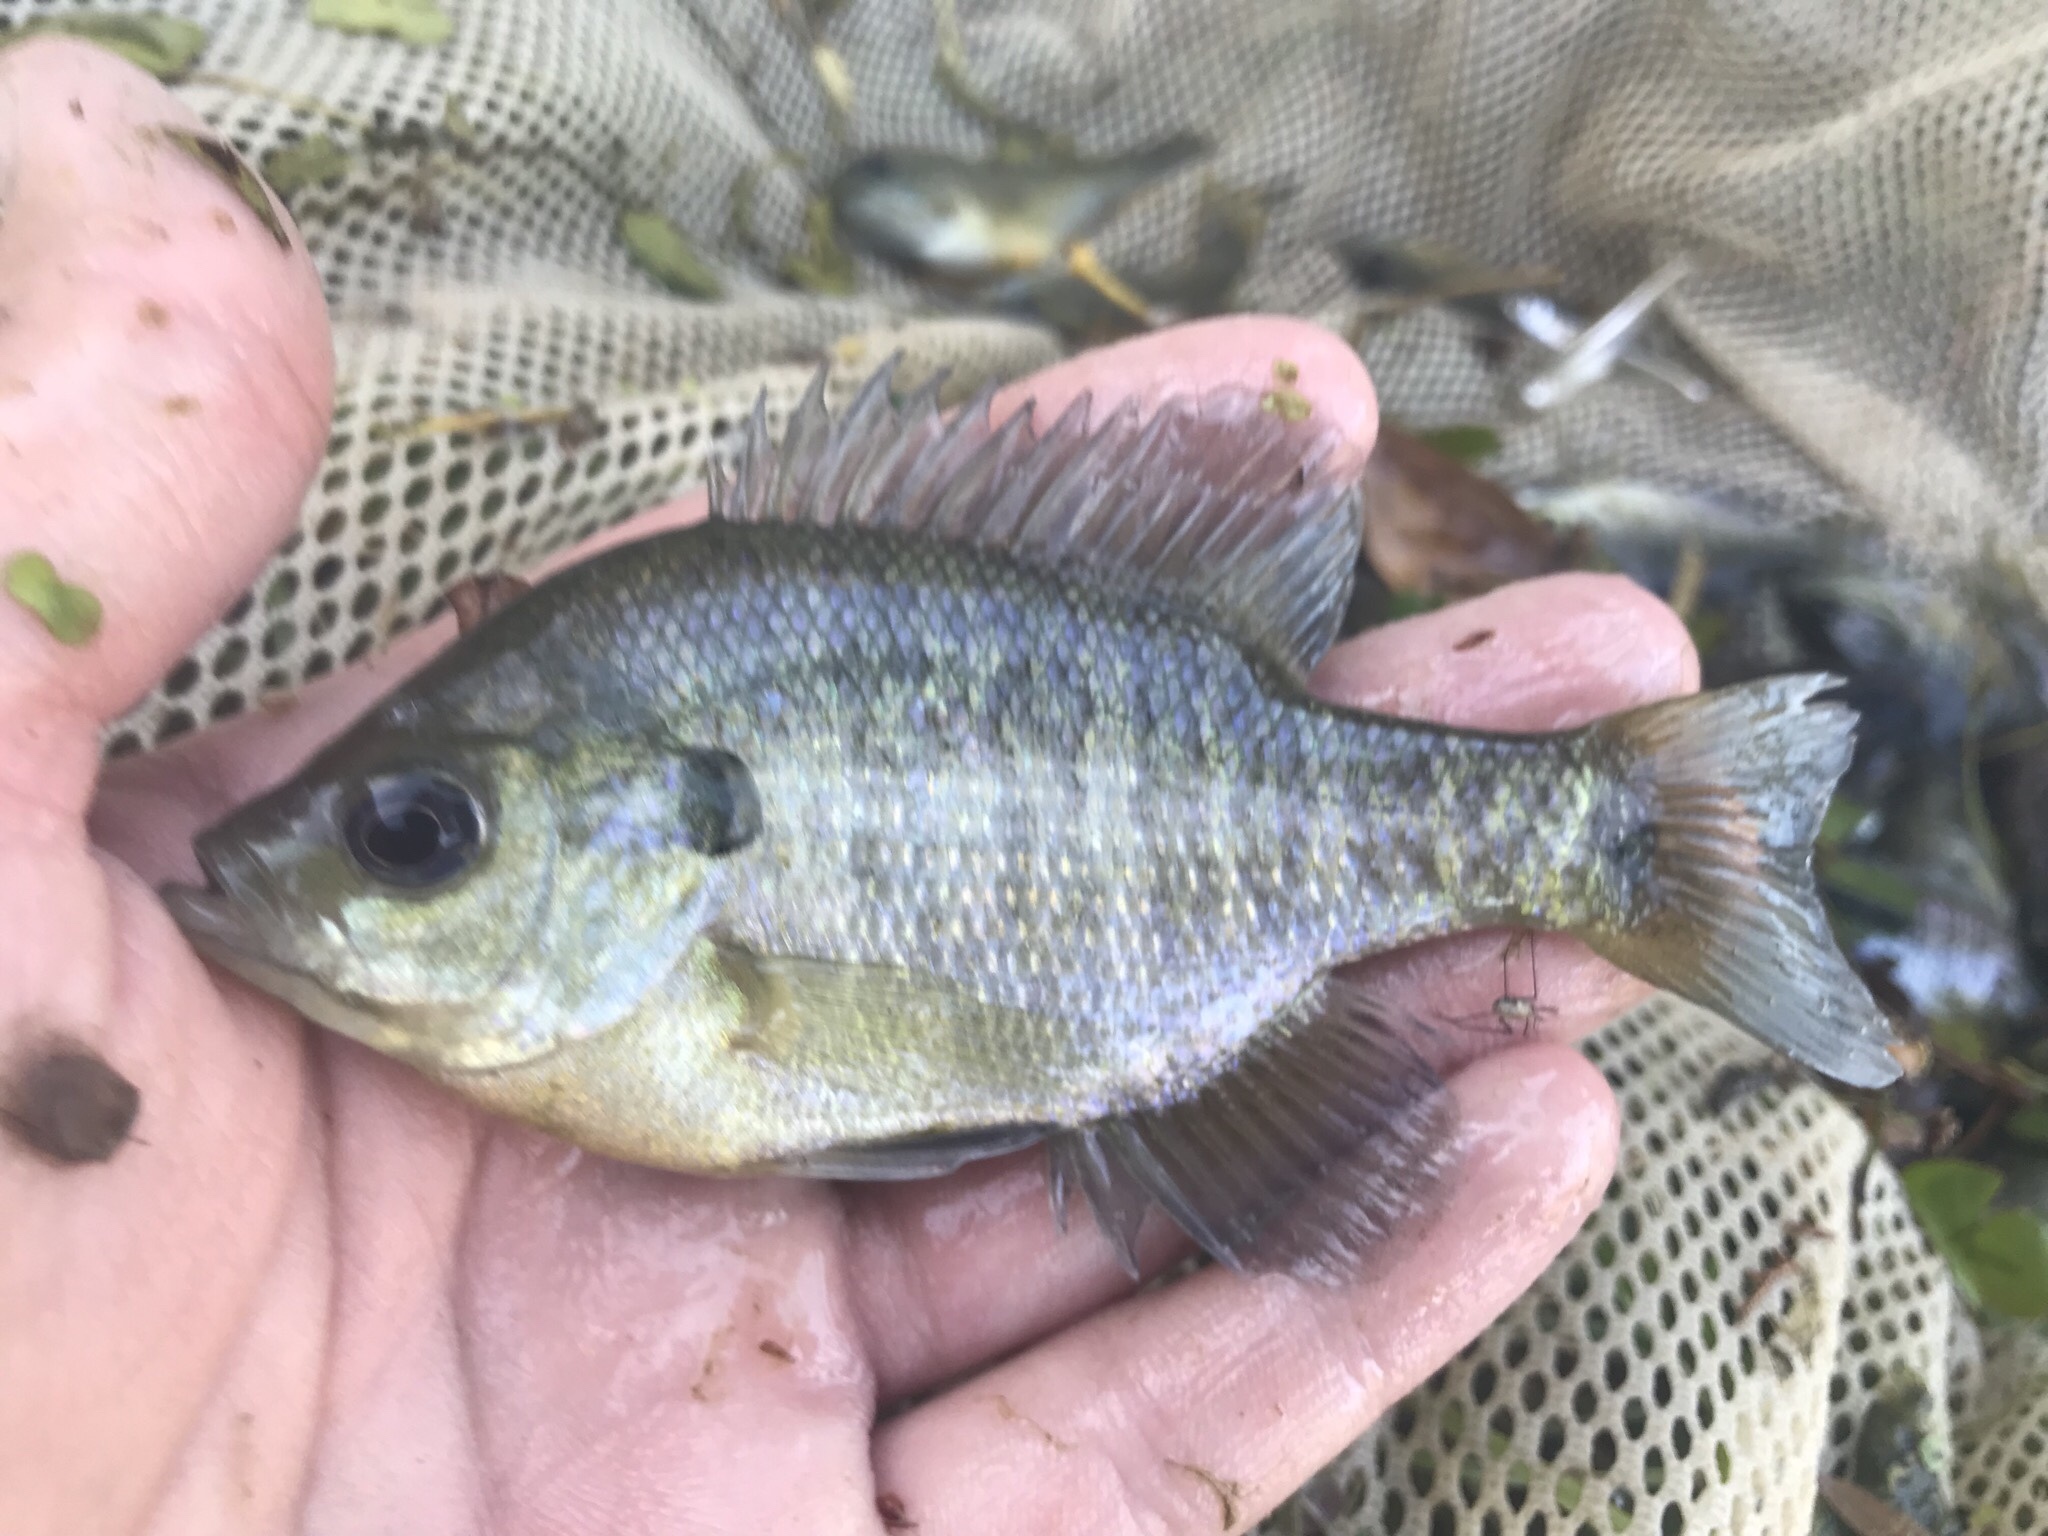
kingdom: Animalia
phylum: Chordata
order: Perciformes
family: Centrarchidae
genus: Lepomis
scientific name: Lepomis macrochirus
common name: Bluegill
